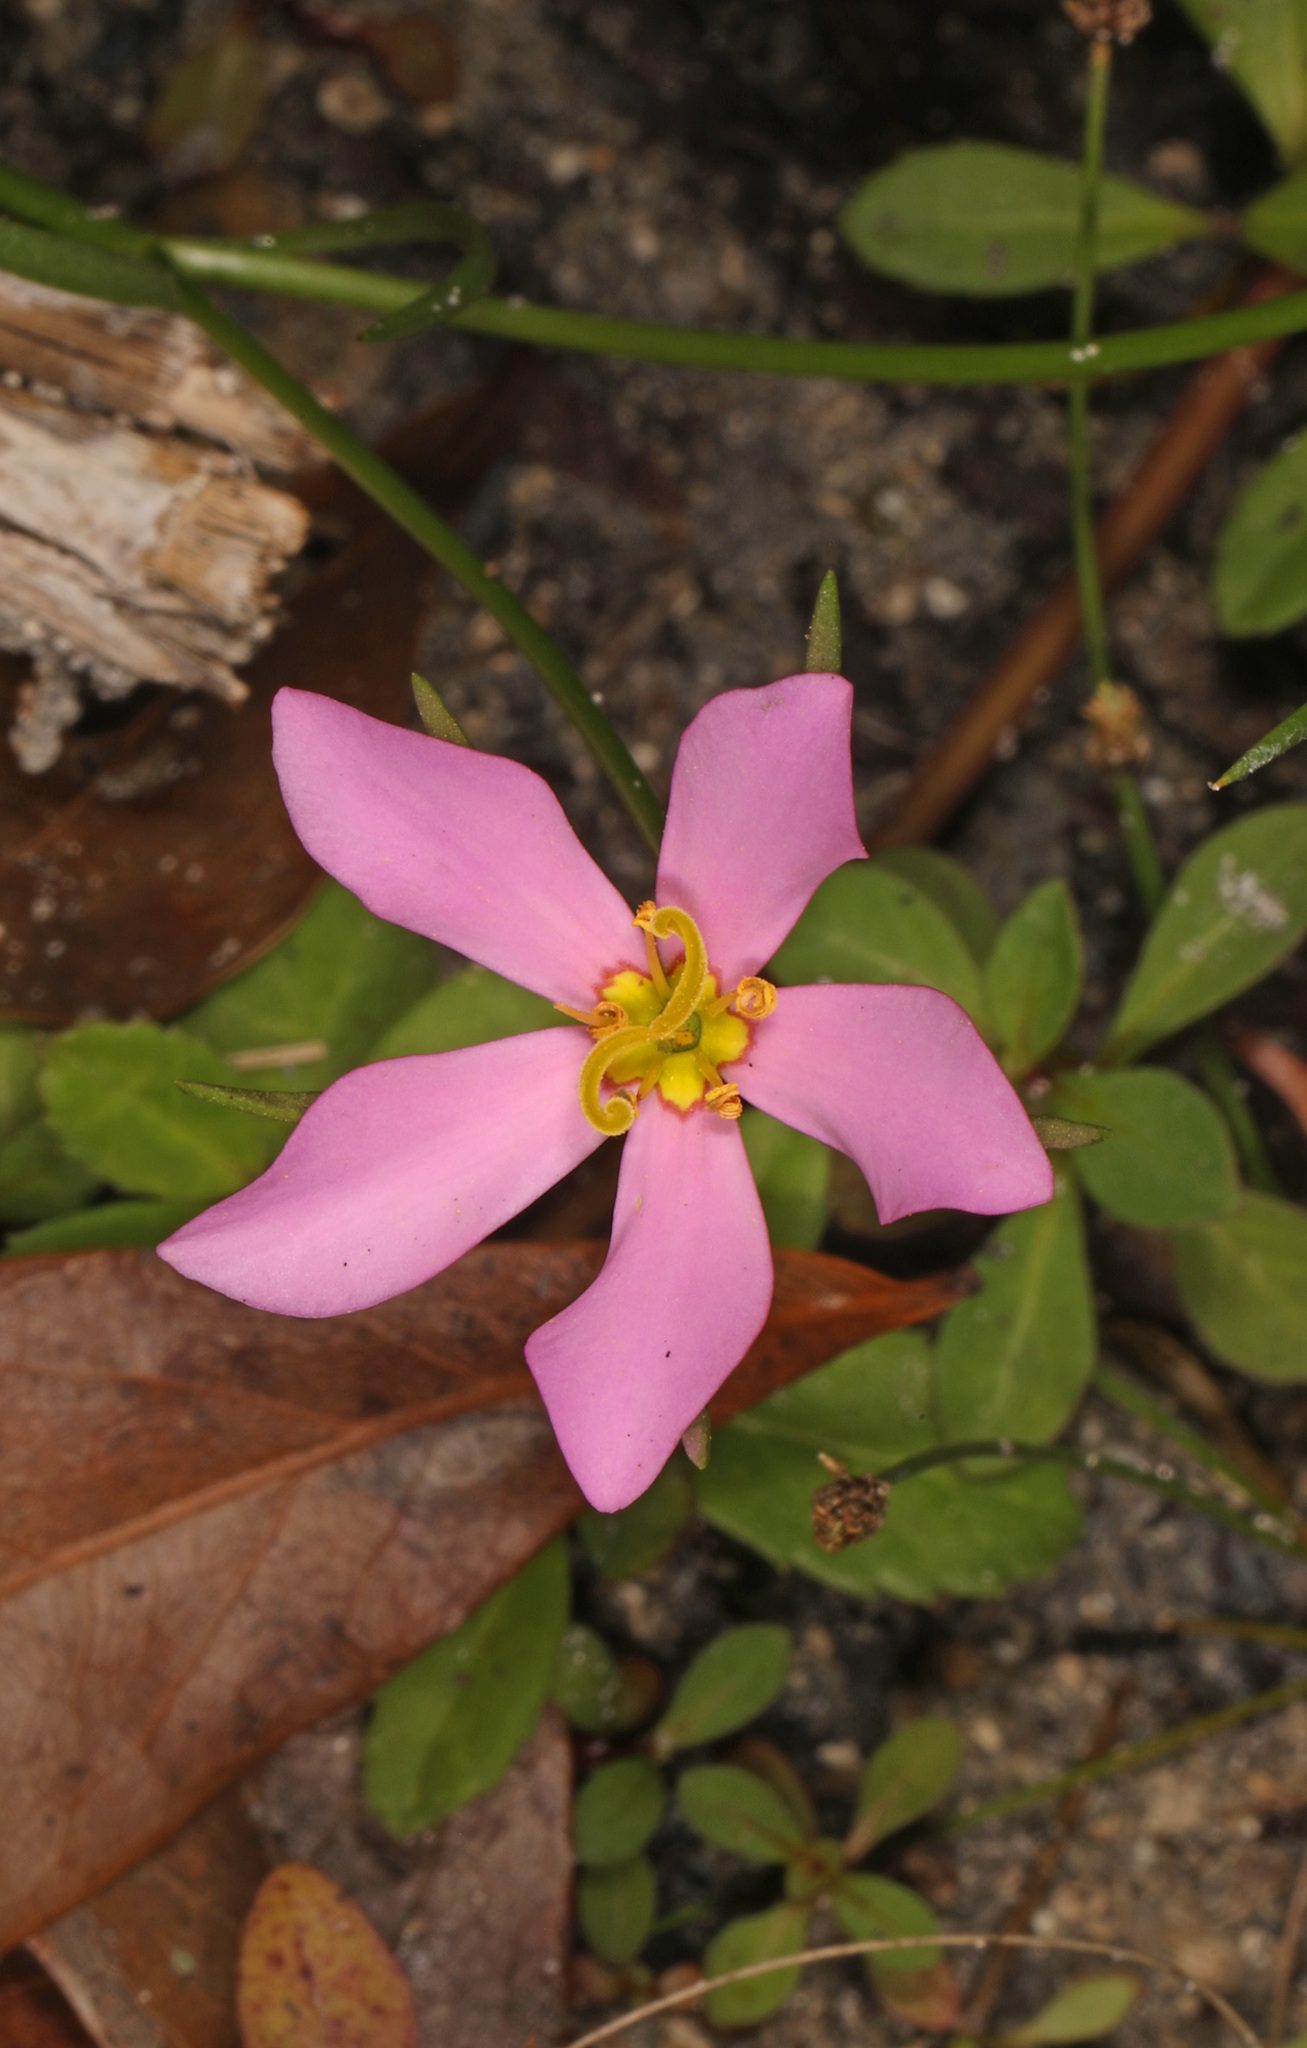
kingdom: Plantae
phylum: Tracheophyta
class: Magnoliopsida
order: Gentianales
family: Gentianaceae
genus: Sabatia
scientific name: Sabatia stellaris
